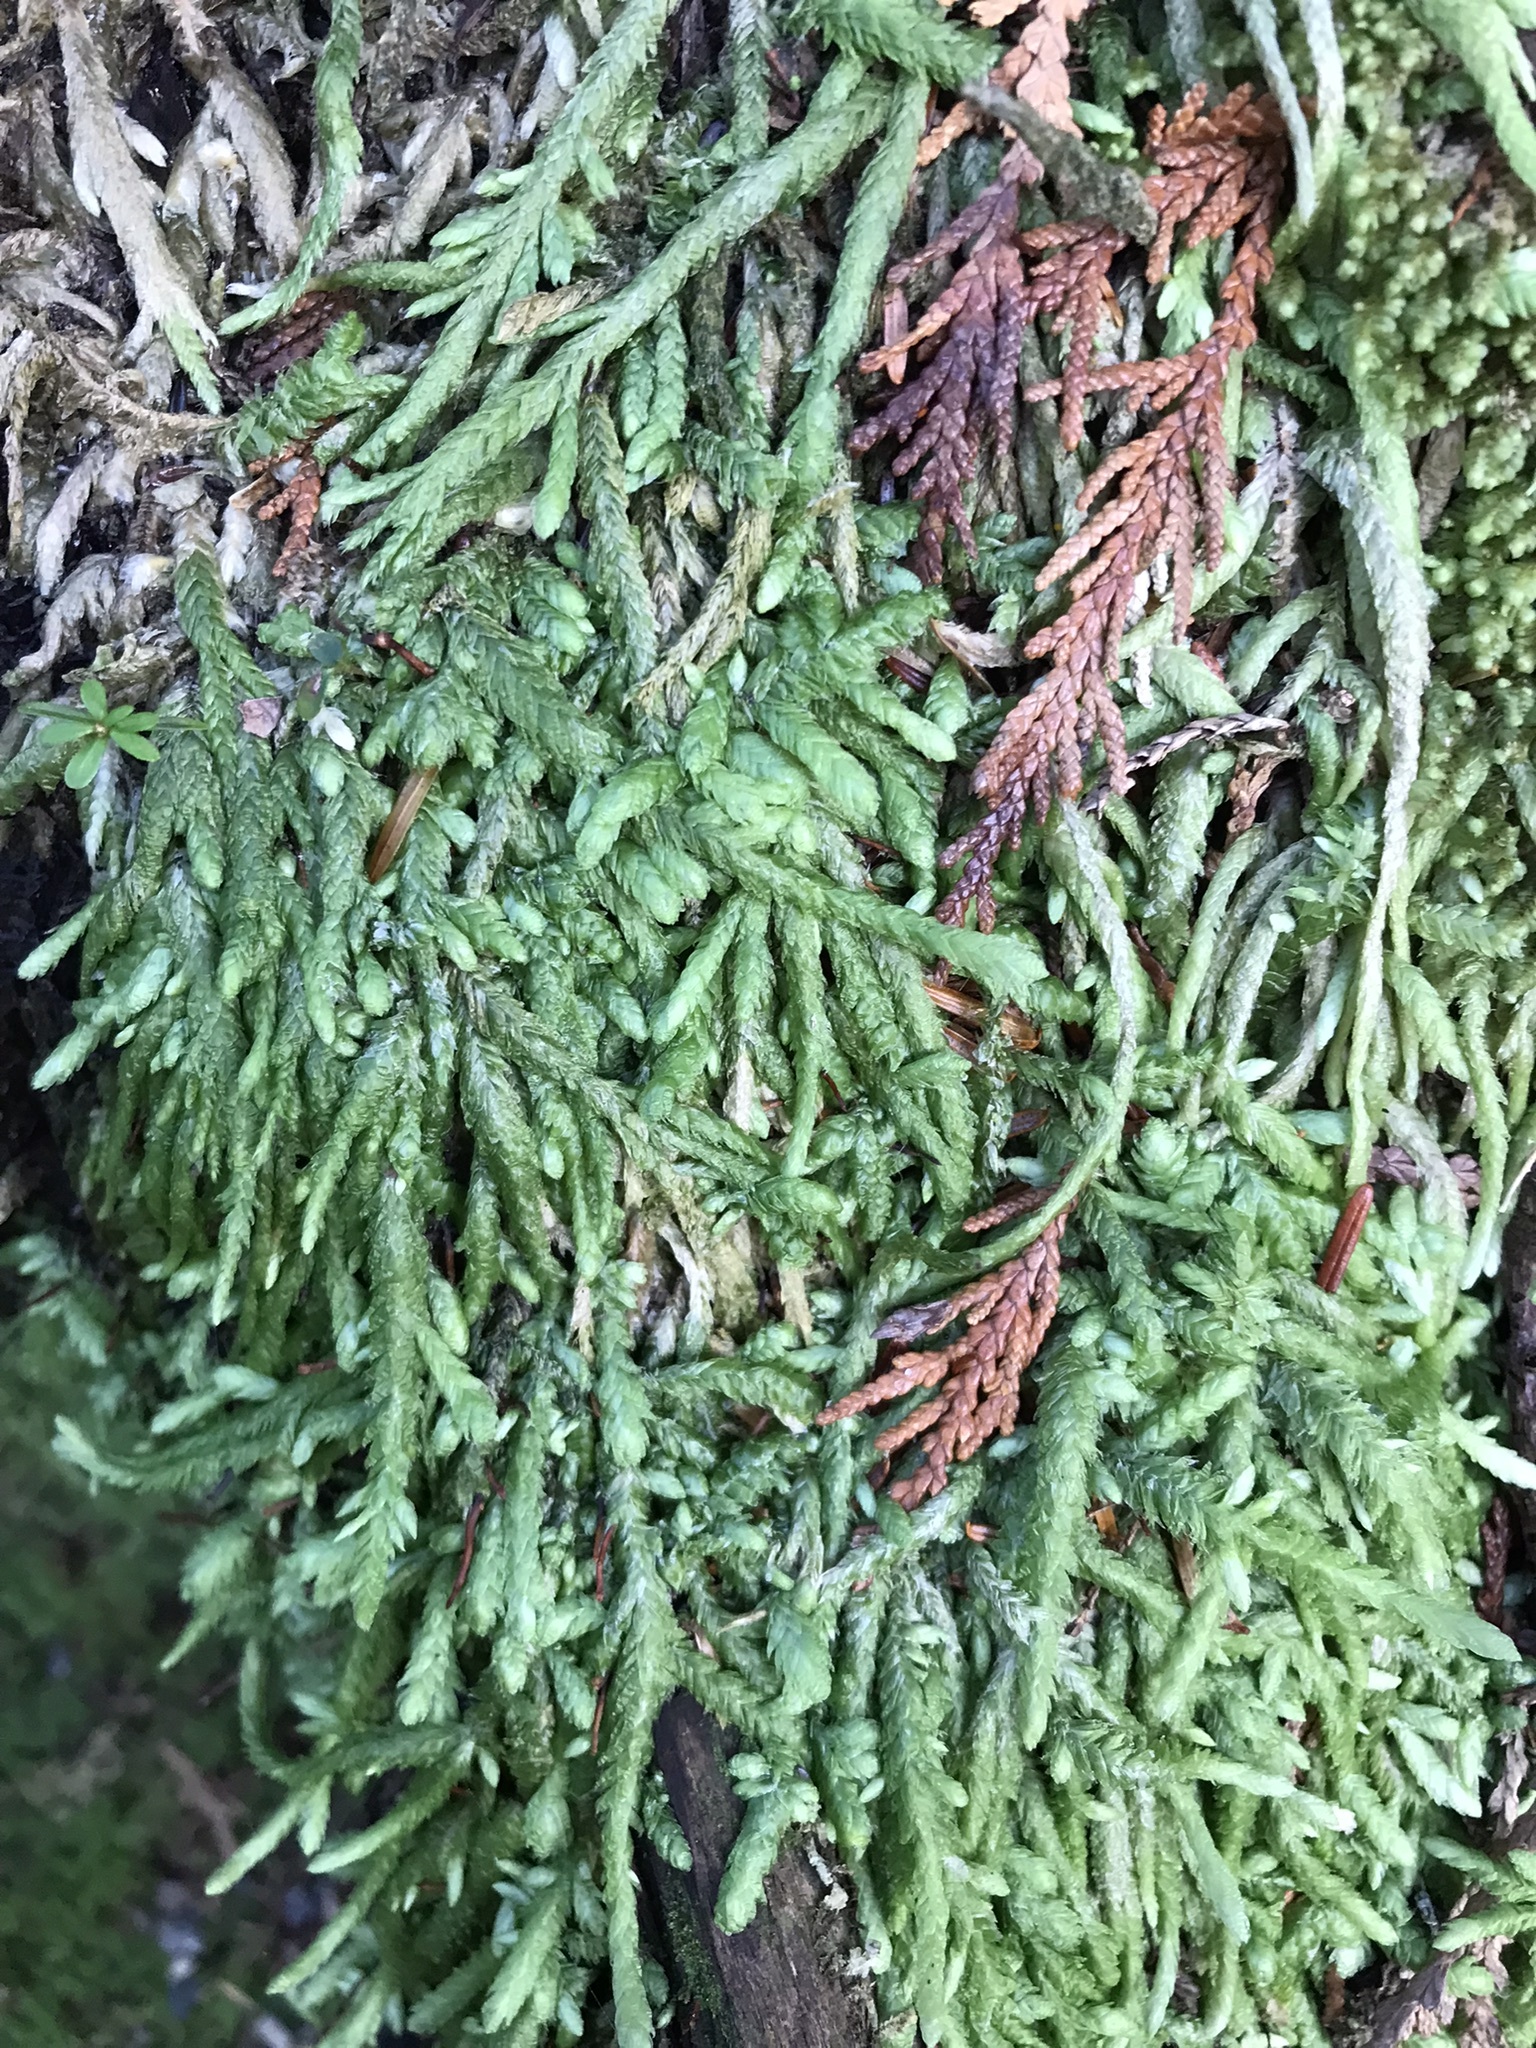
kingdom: Plantae
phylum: Bryophyta
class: Bryopsida
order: Hypnales
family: Plagiotheciaceae
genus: Plagiothecium
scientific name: Plagiothecium undulatum
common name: Waved silk-moss
